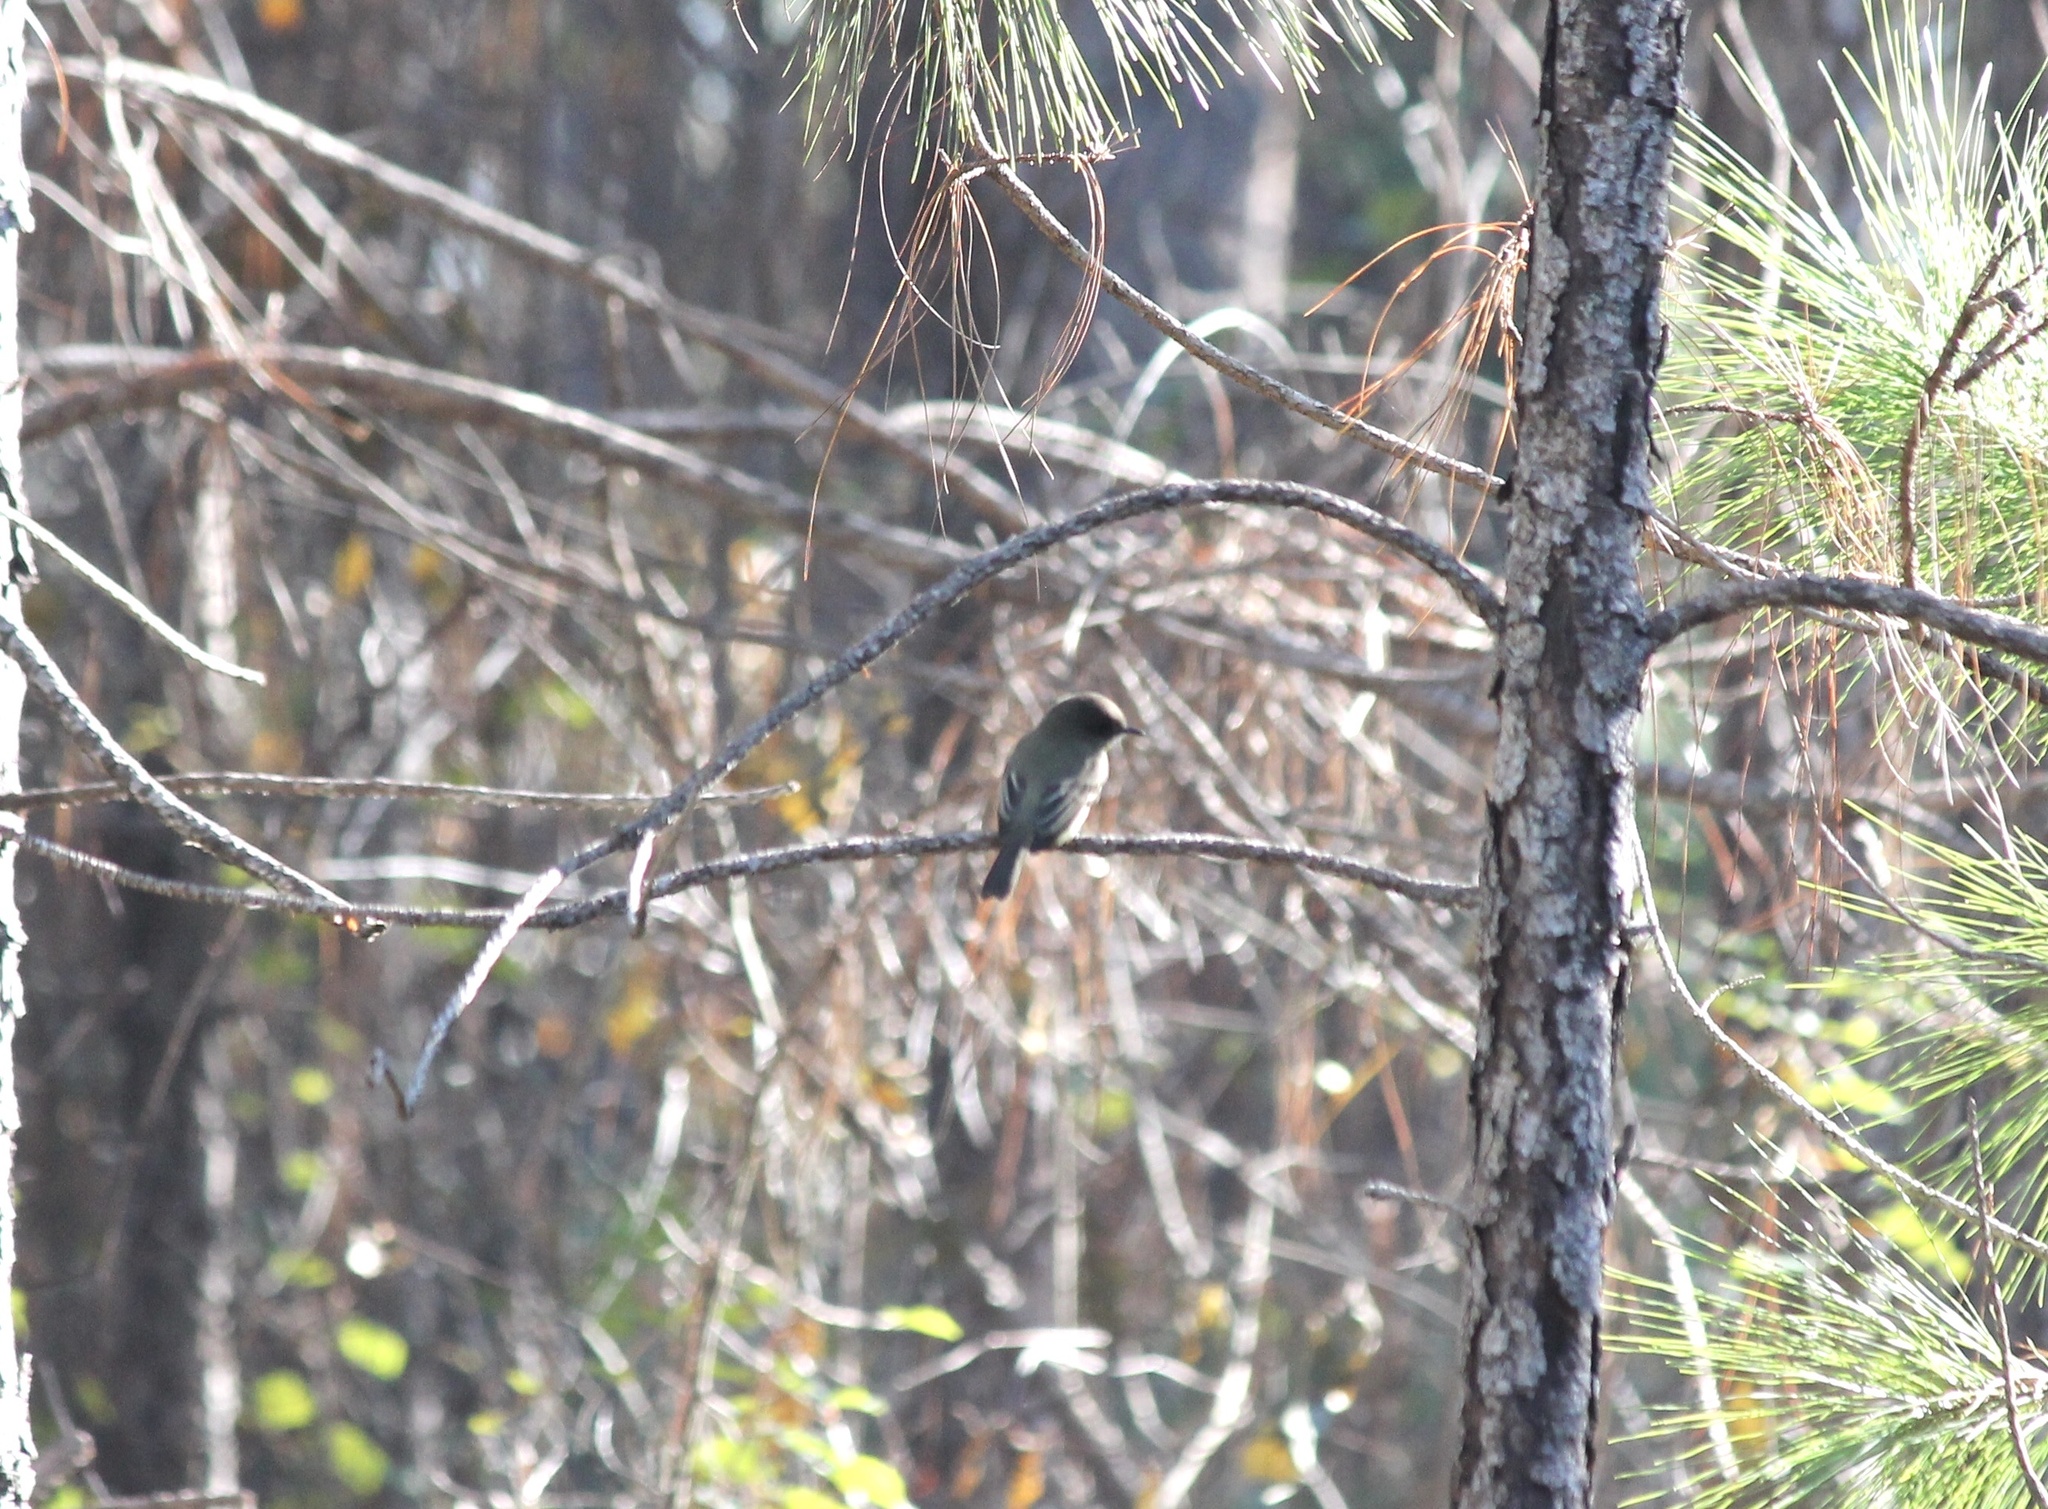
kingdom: Animalia
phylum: Chordata
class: Aves
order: Passeriformes
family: Tyrannidae
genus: Sayornis
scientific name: Sayornis phoebe
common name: Eastern phoebe
